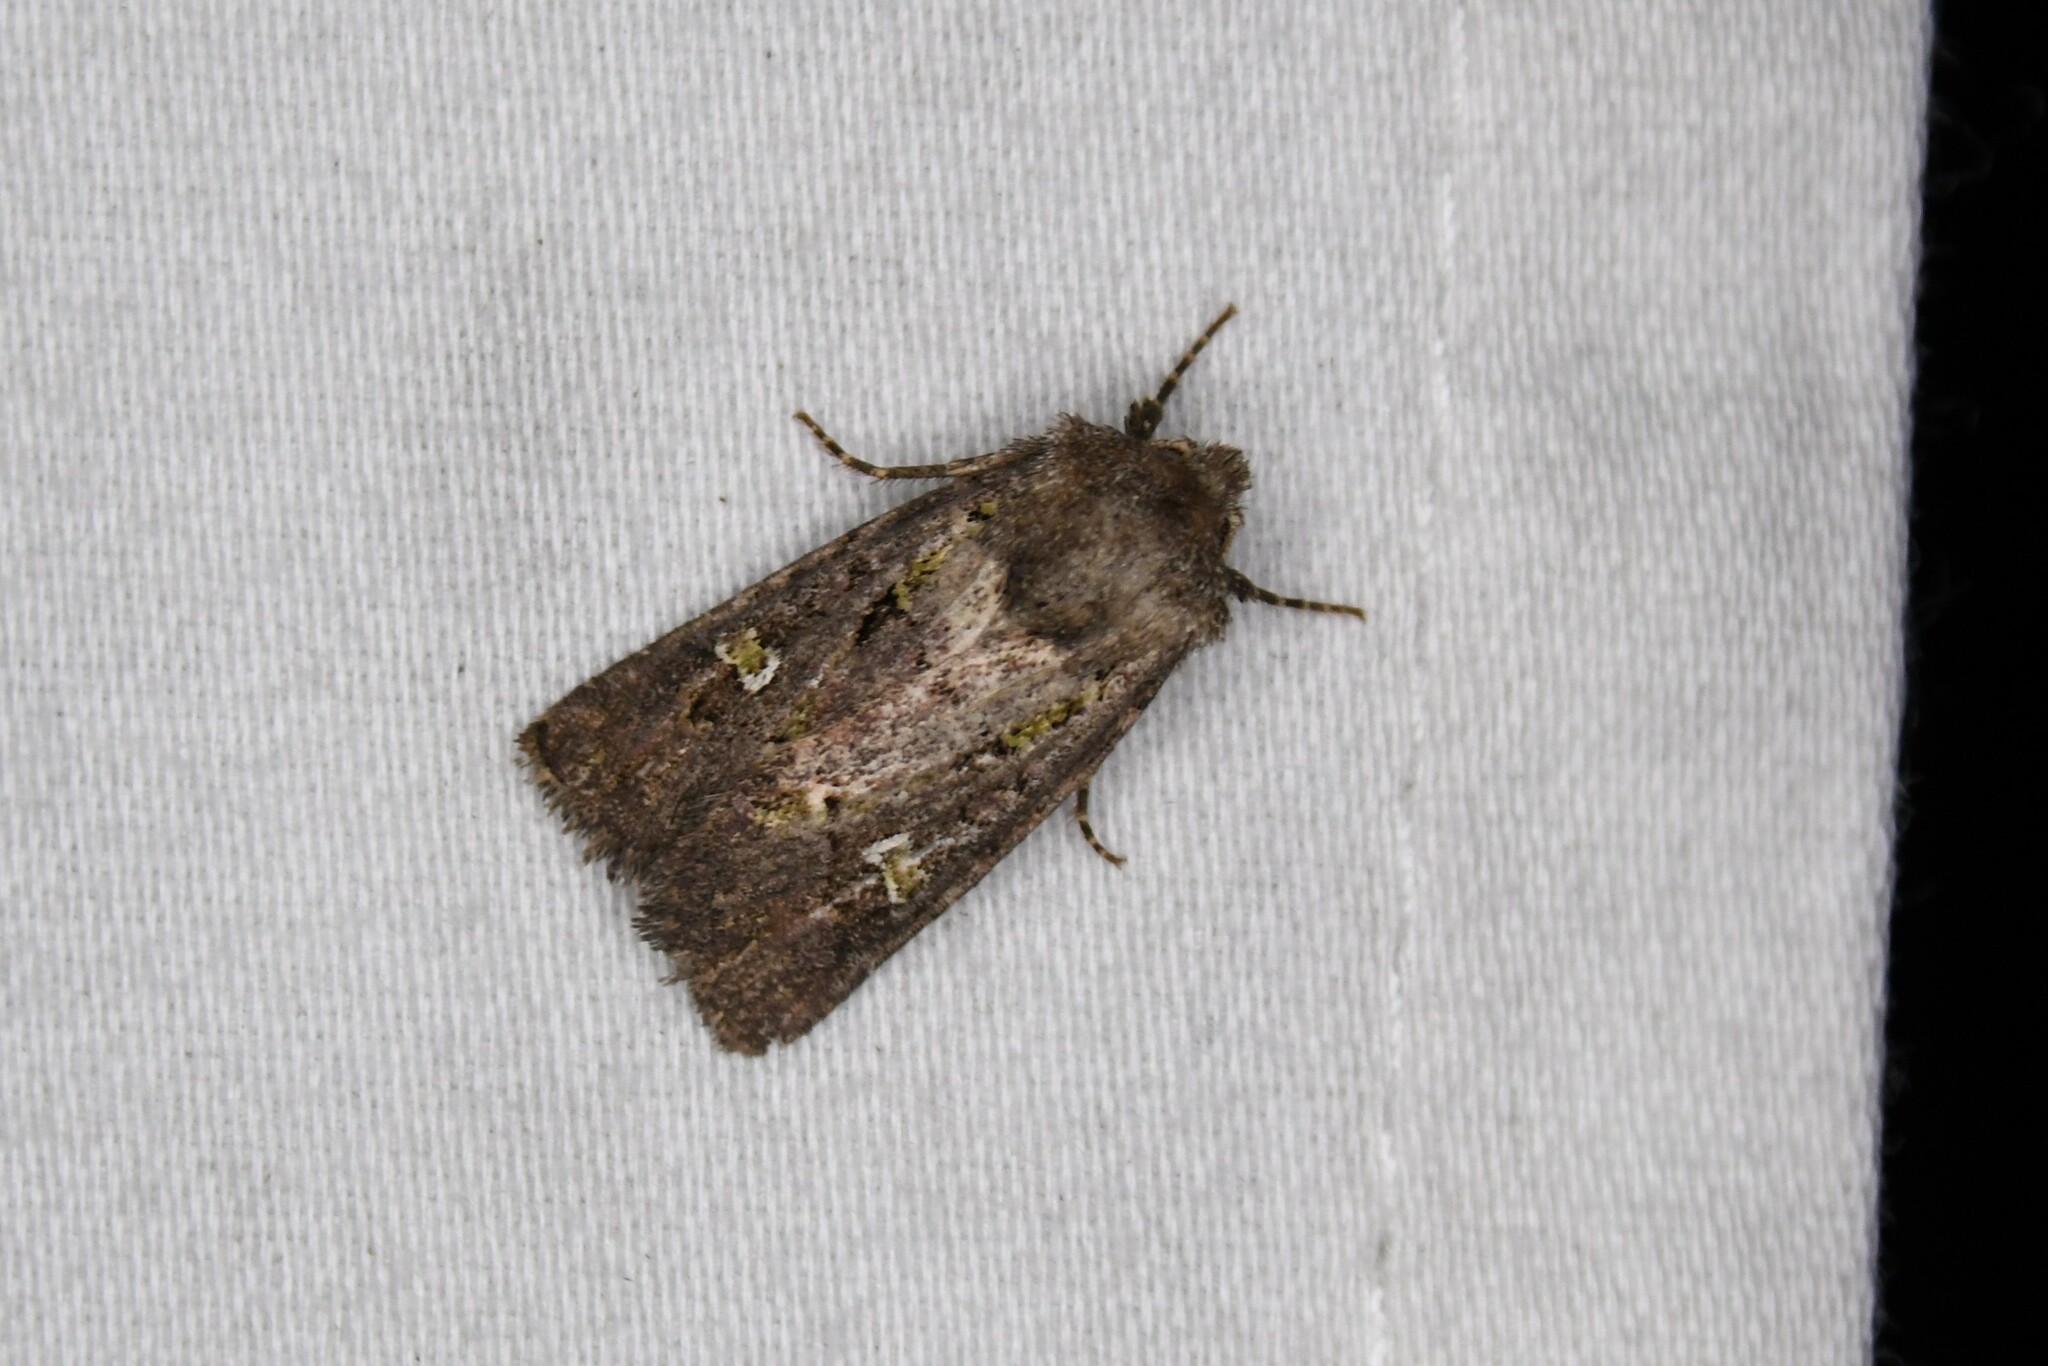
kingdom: Animalia
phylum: Arthropoda
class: Insecta
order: Lepidoptera
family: Noctuidae
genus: Lacinipolia
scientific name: Lacinipolia renigera
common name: Kidney-spotted minor
